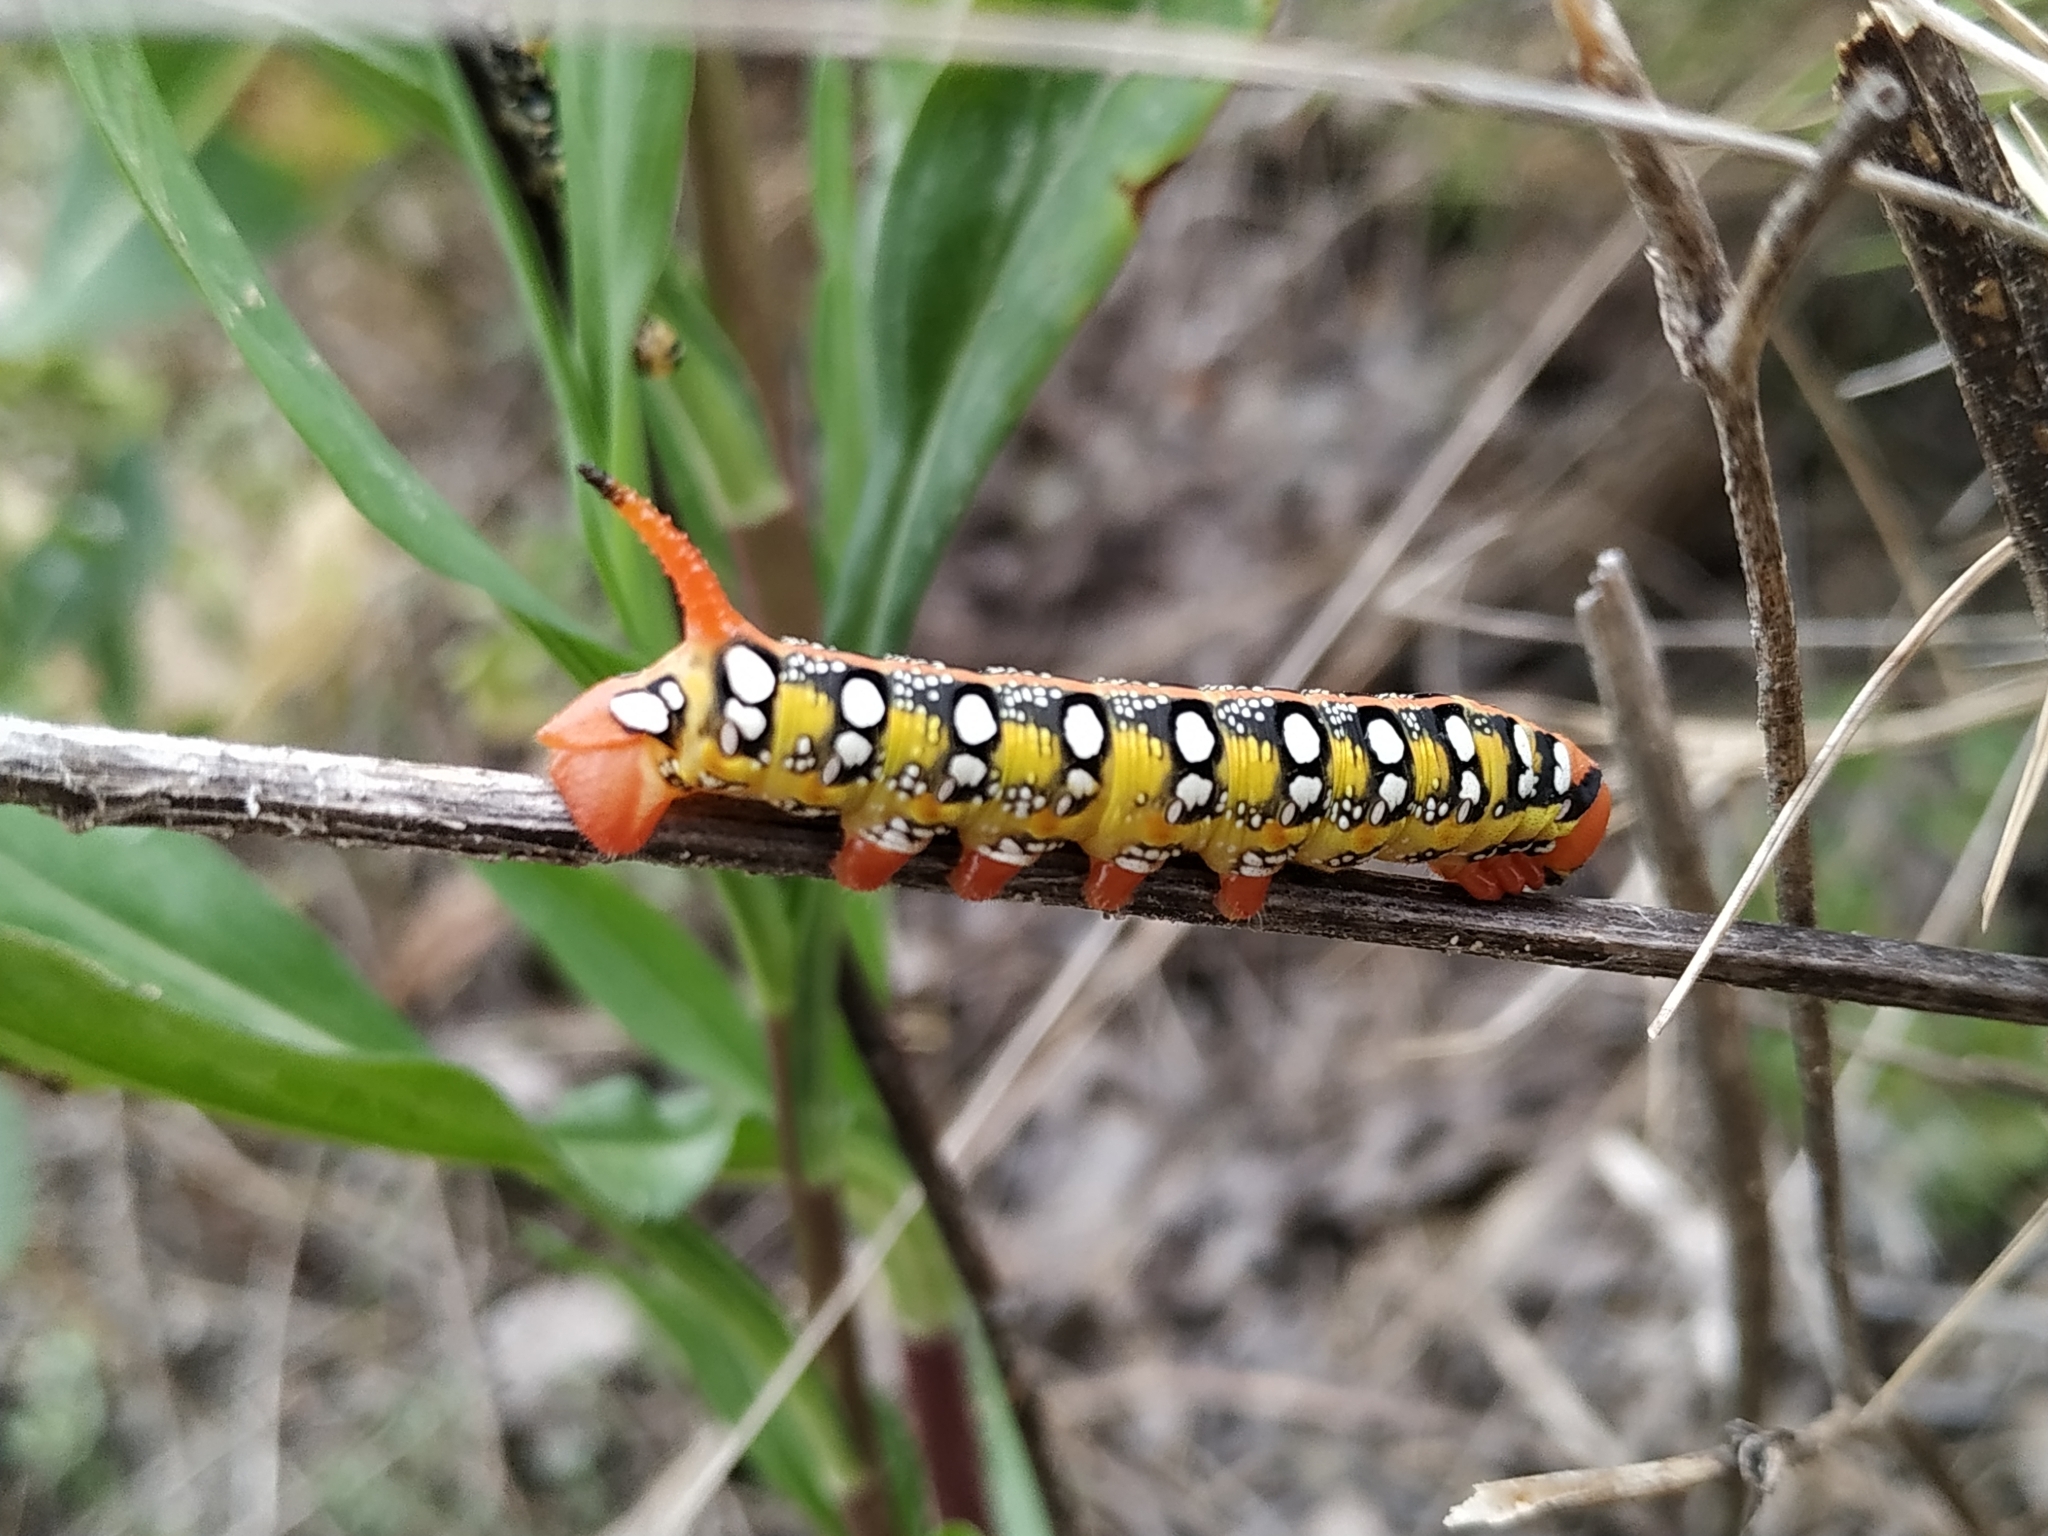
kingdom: Animalia
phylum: Arthropoda
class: Insecta
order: Lepidoptera
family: Sphingidae
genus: Hyles
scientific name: Hyles euphorbiae
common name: Spurge hawk-moth
